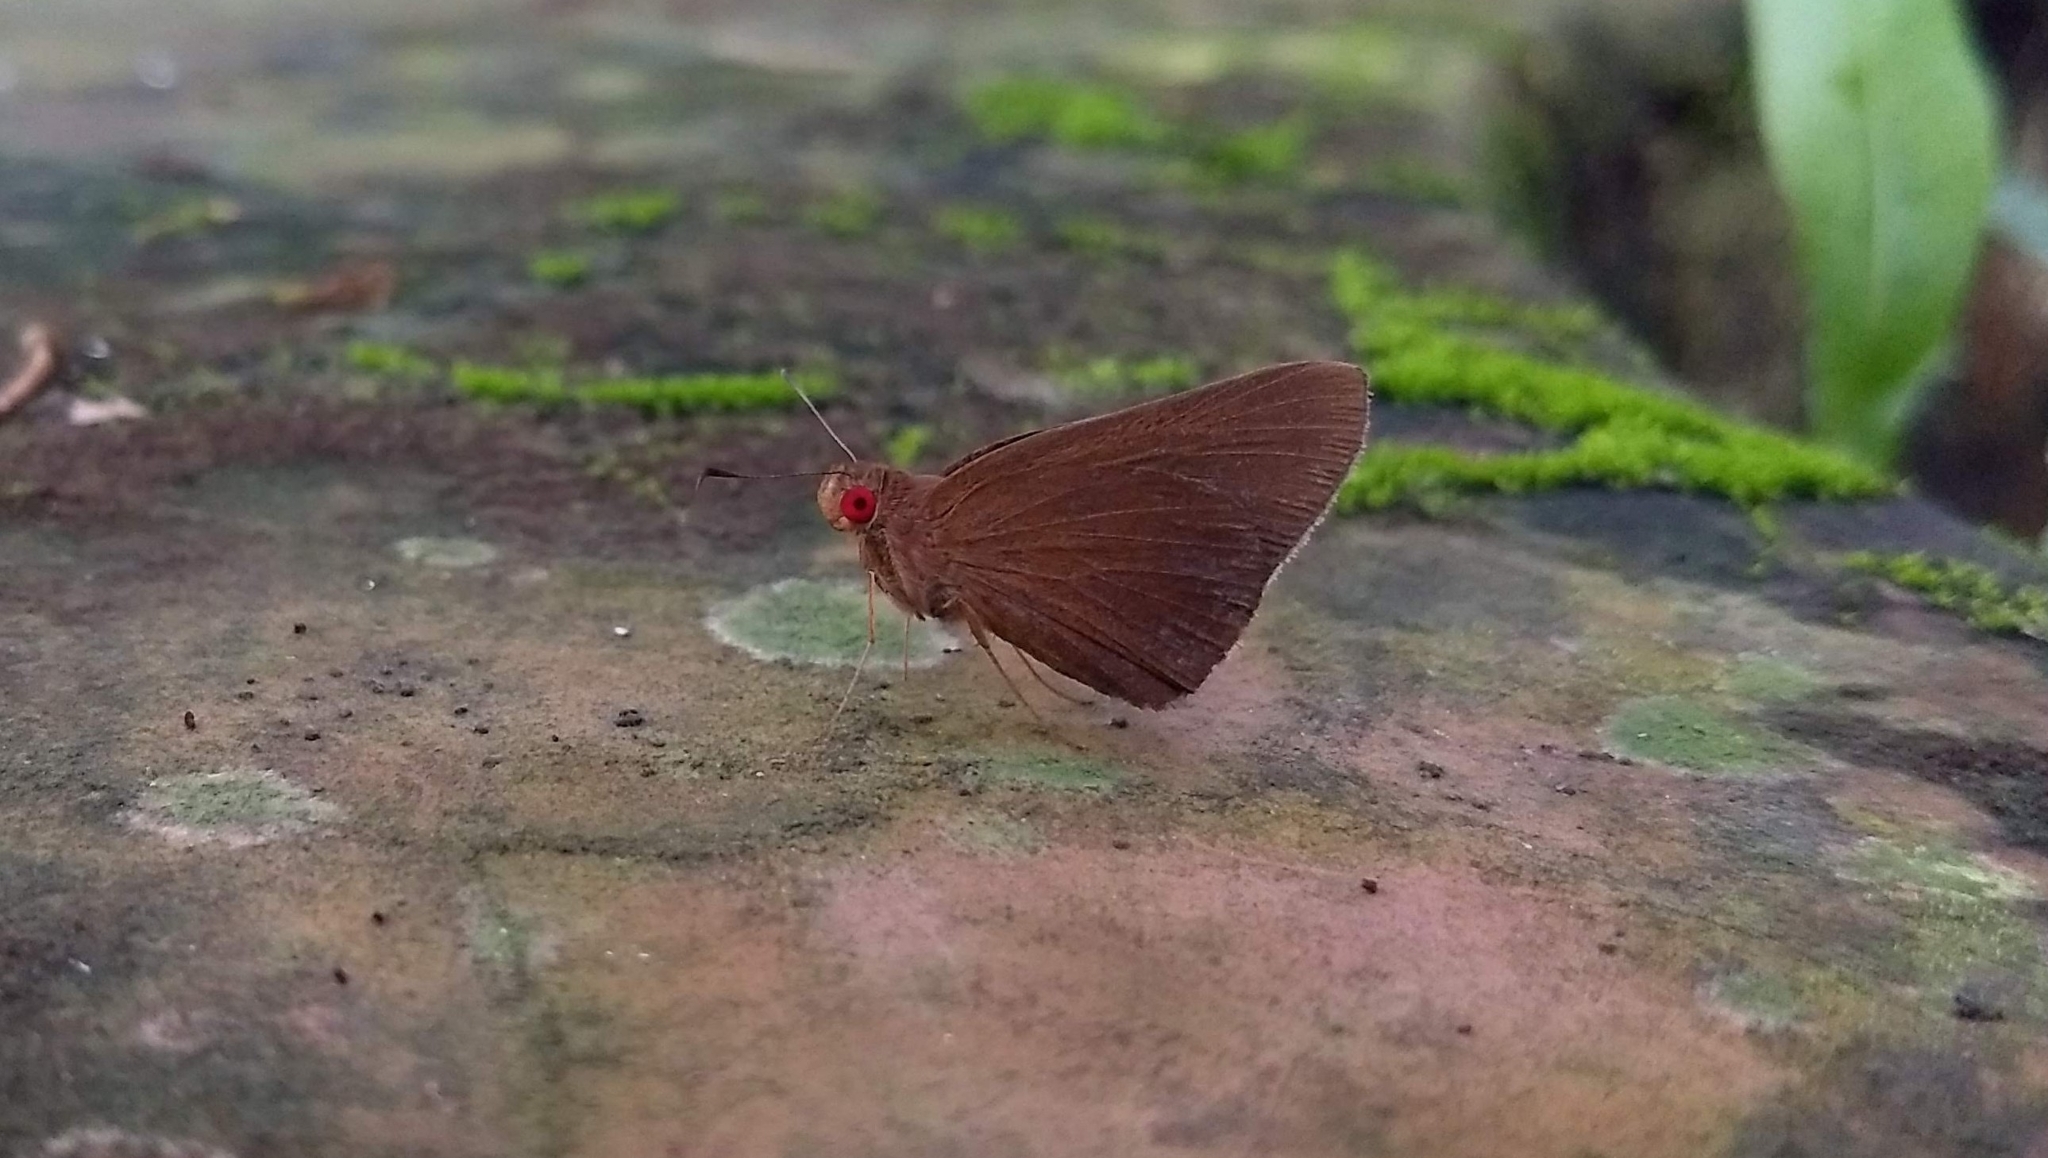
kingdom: Animalia
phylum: Arthropoda
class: Insecta
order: Lepidoptera
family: Hesperiidae
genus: Matapa
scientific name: Matapa aria
